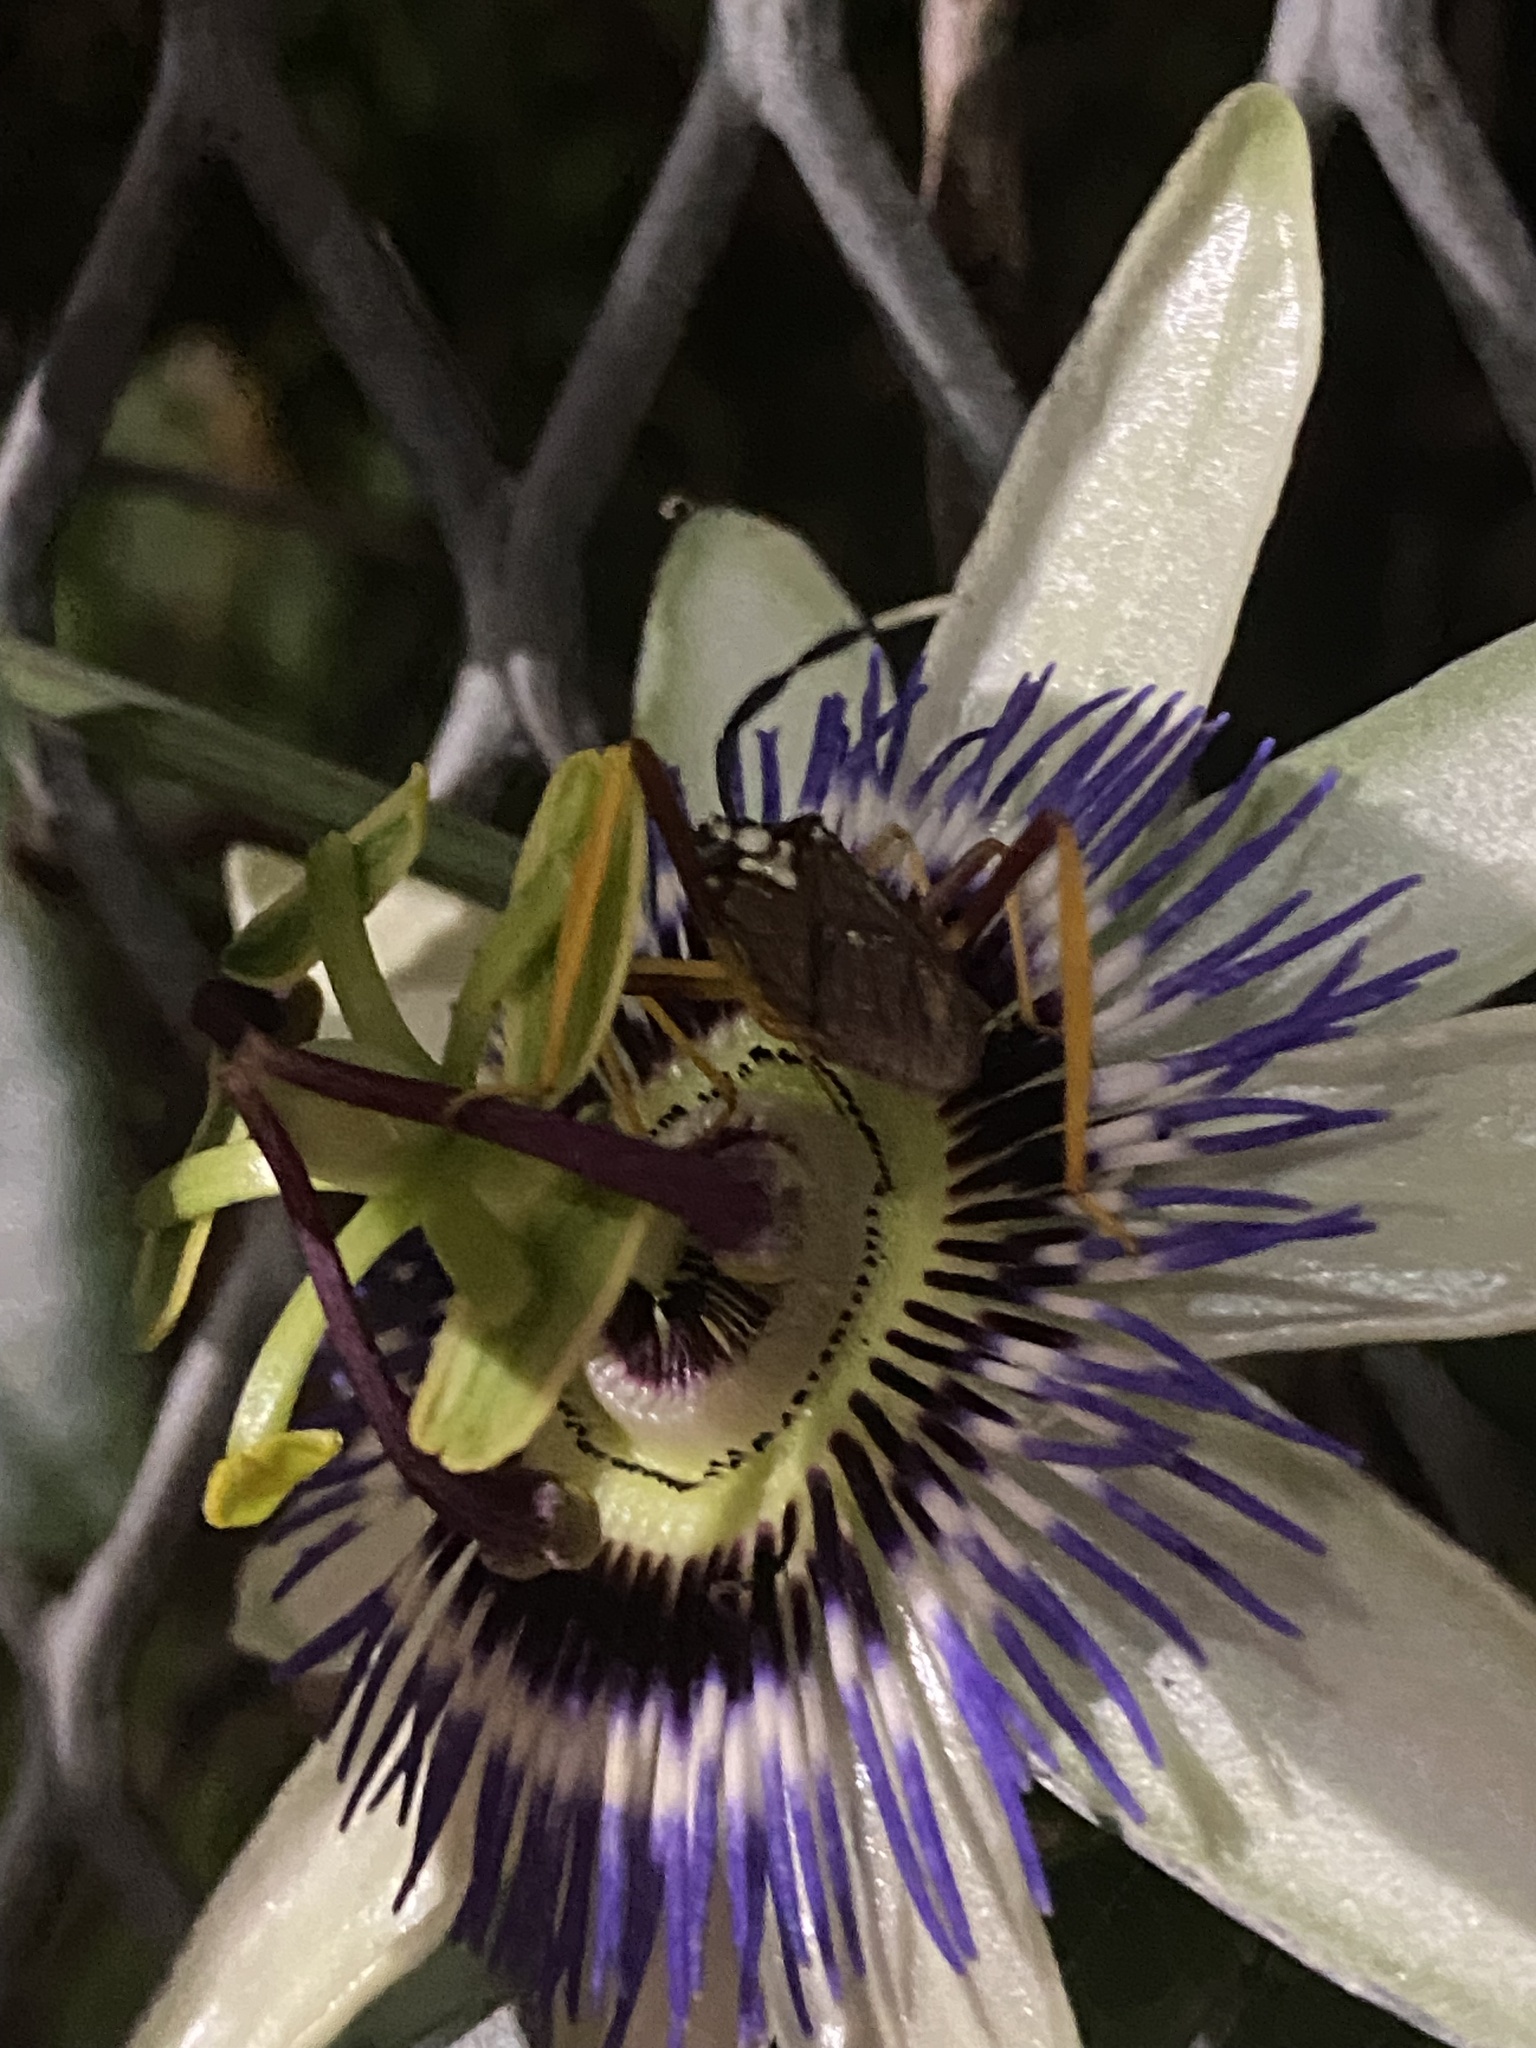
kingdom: Plantae
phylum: Tracheophyta
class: Magnoliopsida
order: Malpighiales
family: Passifloraceae
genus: Passiflora
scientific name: Passiflora caerulea
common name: Blue passionflower
